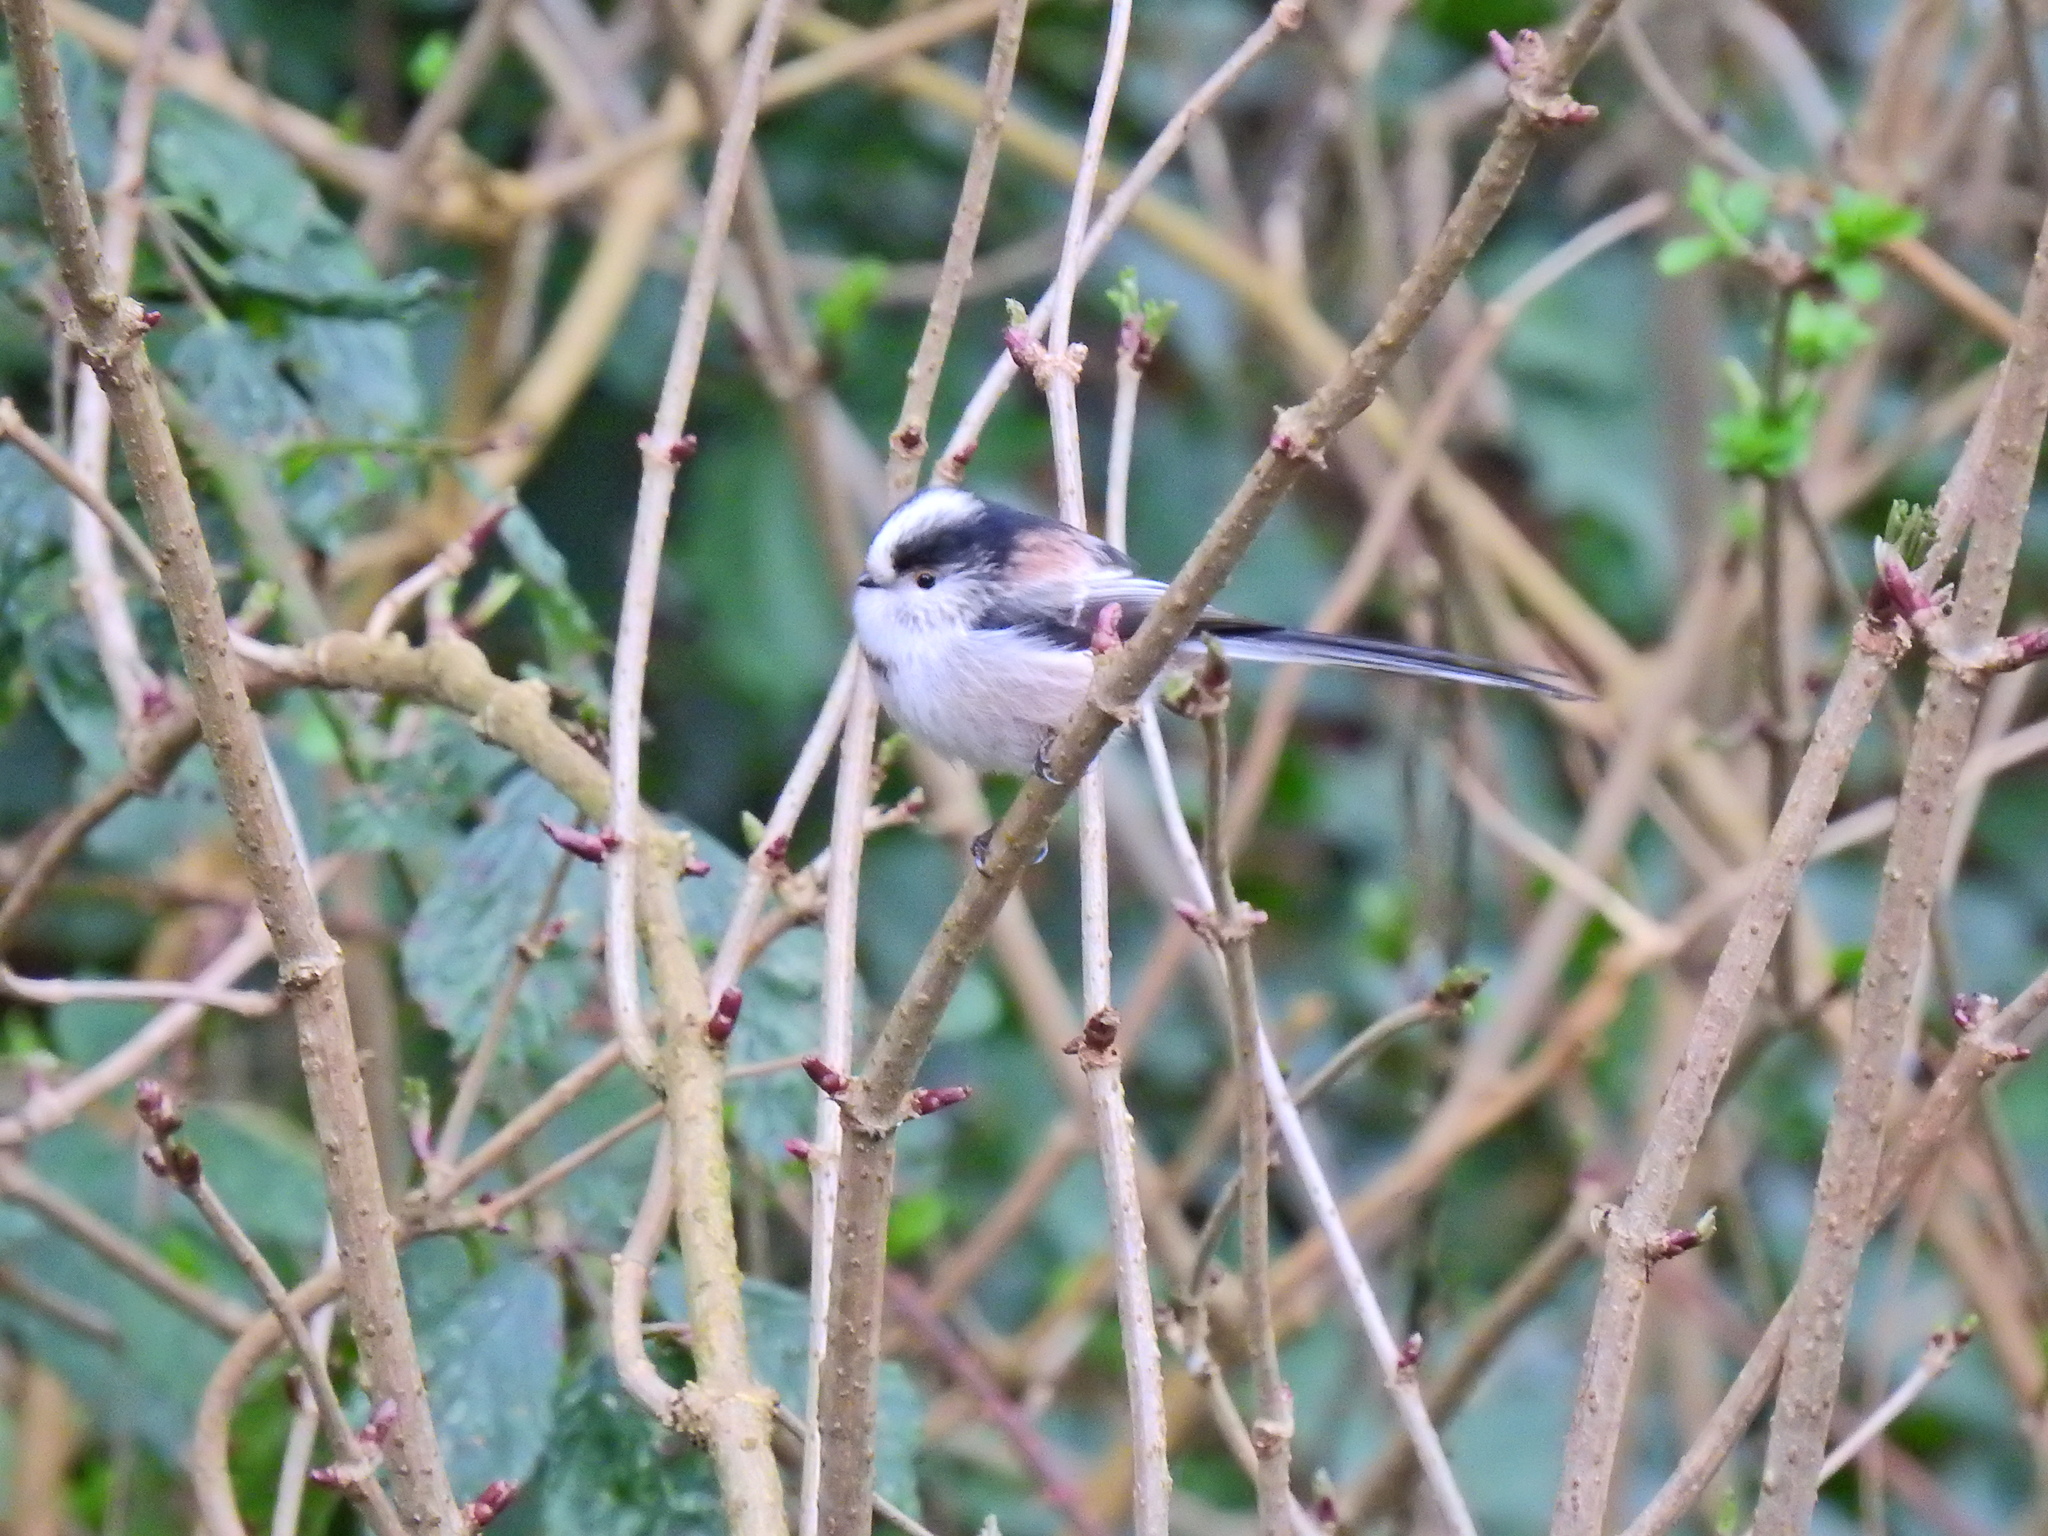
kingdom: Animalia
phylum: Chordata
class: Aves
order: Passeriformes
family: Aegithalidae
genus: Aegithalos
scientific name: Aegithalos caudatus
